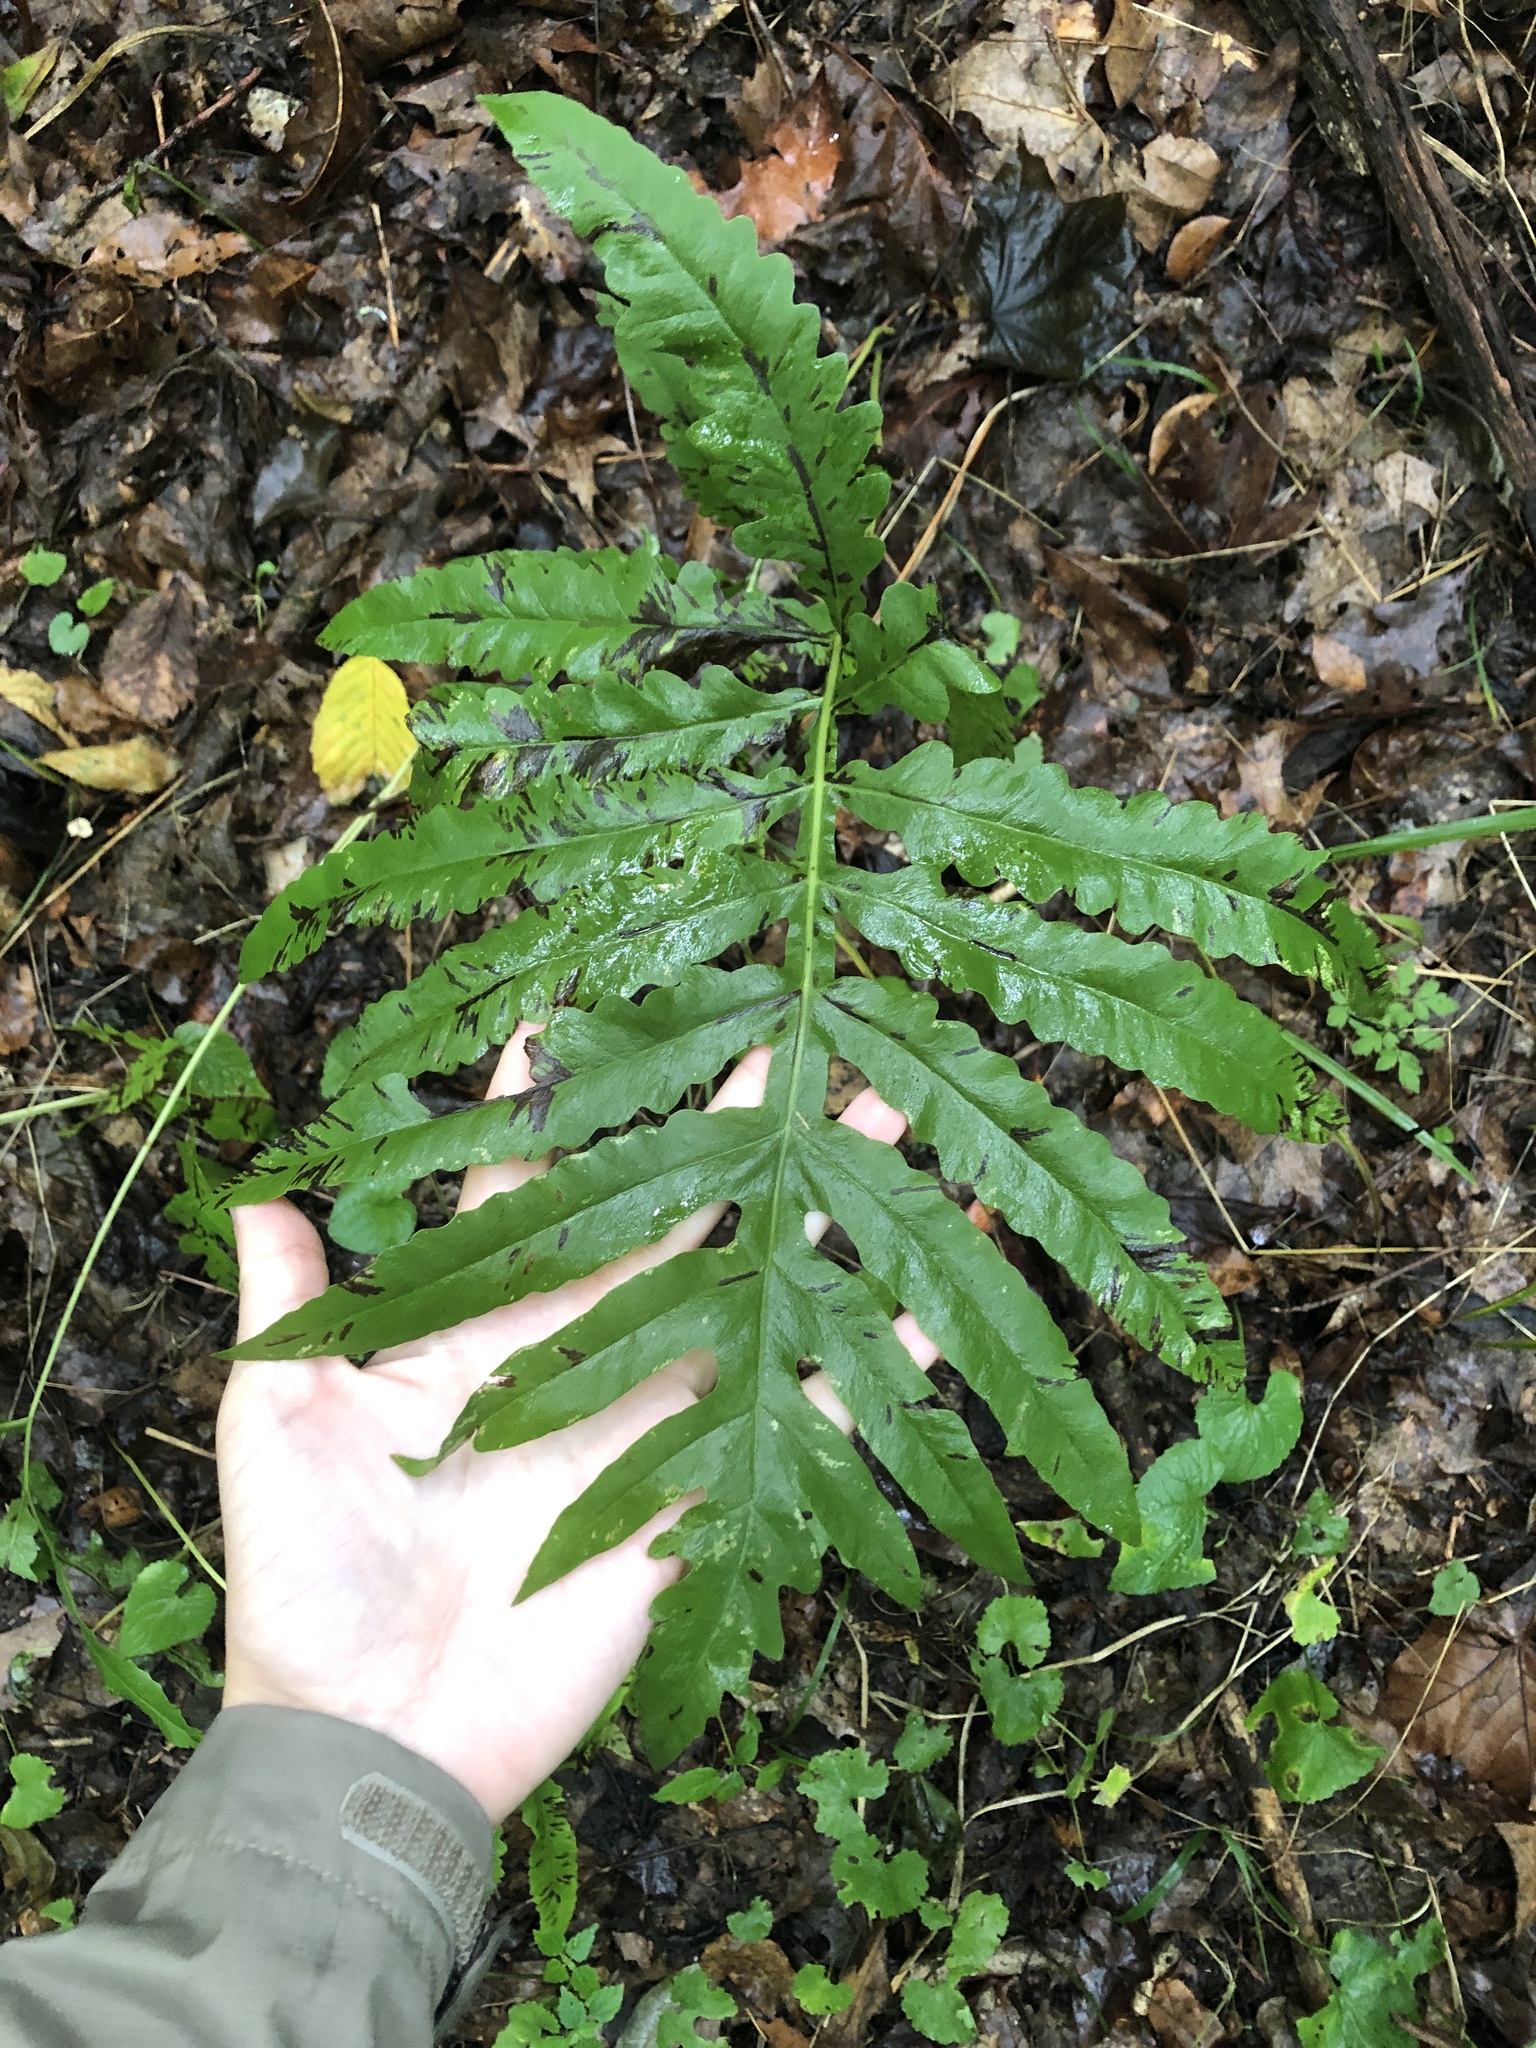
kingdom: Plantae
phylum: Tracheophyta
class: Polypodiopsida
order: Polypodiales
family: Onocleaceae
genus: Onoclea
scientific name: Onoclea sensibilis
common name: Sensitive fern
